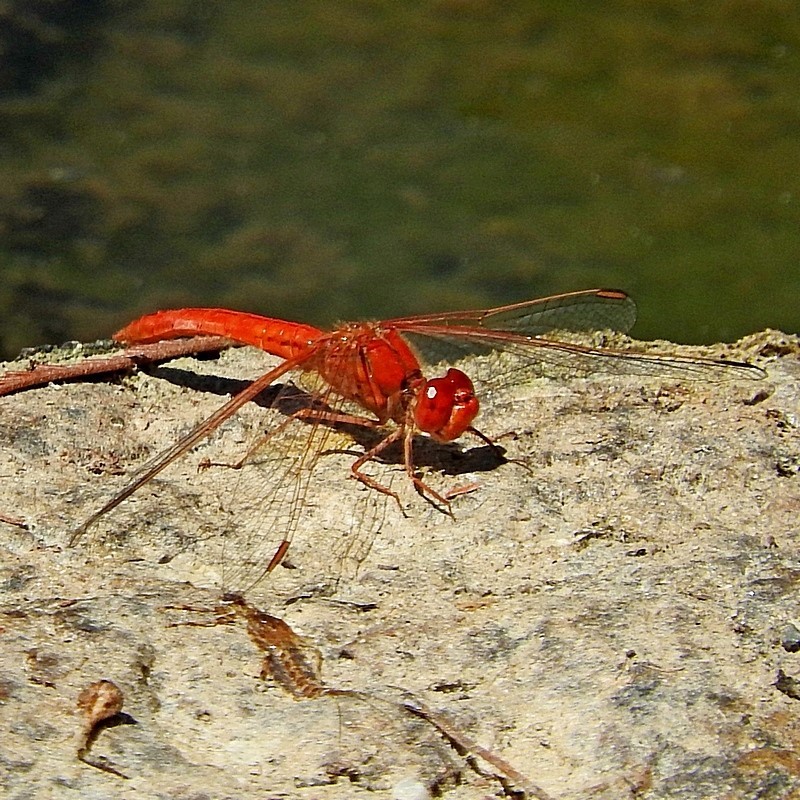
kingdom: Animalia
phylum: Arthropoda
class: Insecta
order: Odonata
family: Libellulidae
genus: Diplacodes
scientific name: Diplacodes haematodes
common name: Scarlet percher
